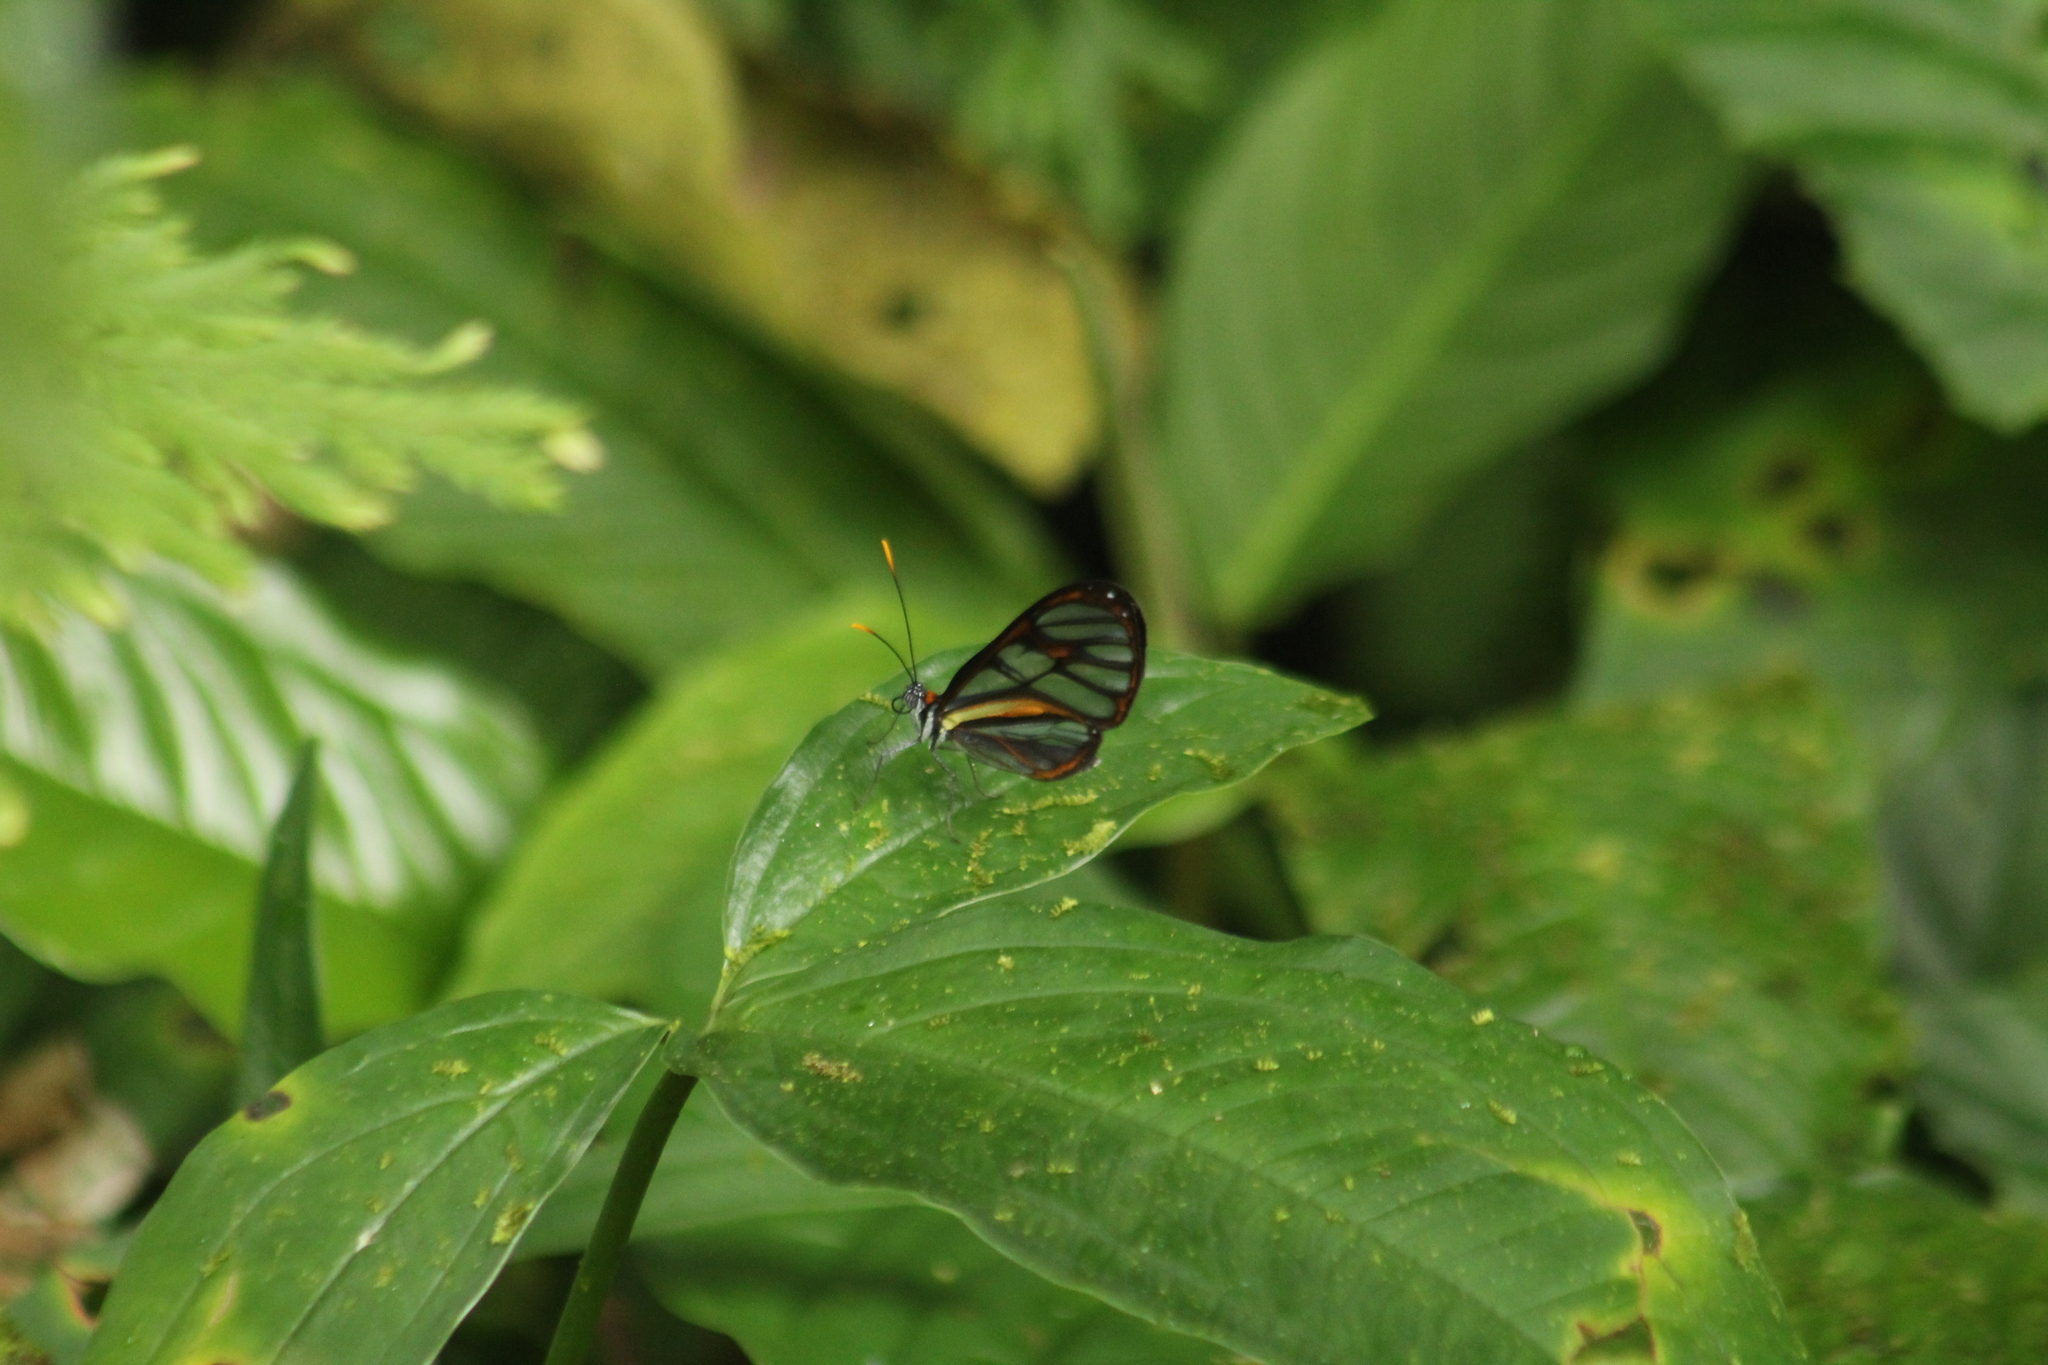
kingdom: Animalia
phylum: Arthropoda
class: Insecta
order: Lepidoptera
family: Nymphalidae
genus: Ithomia
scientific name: Ithomia hyala
